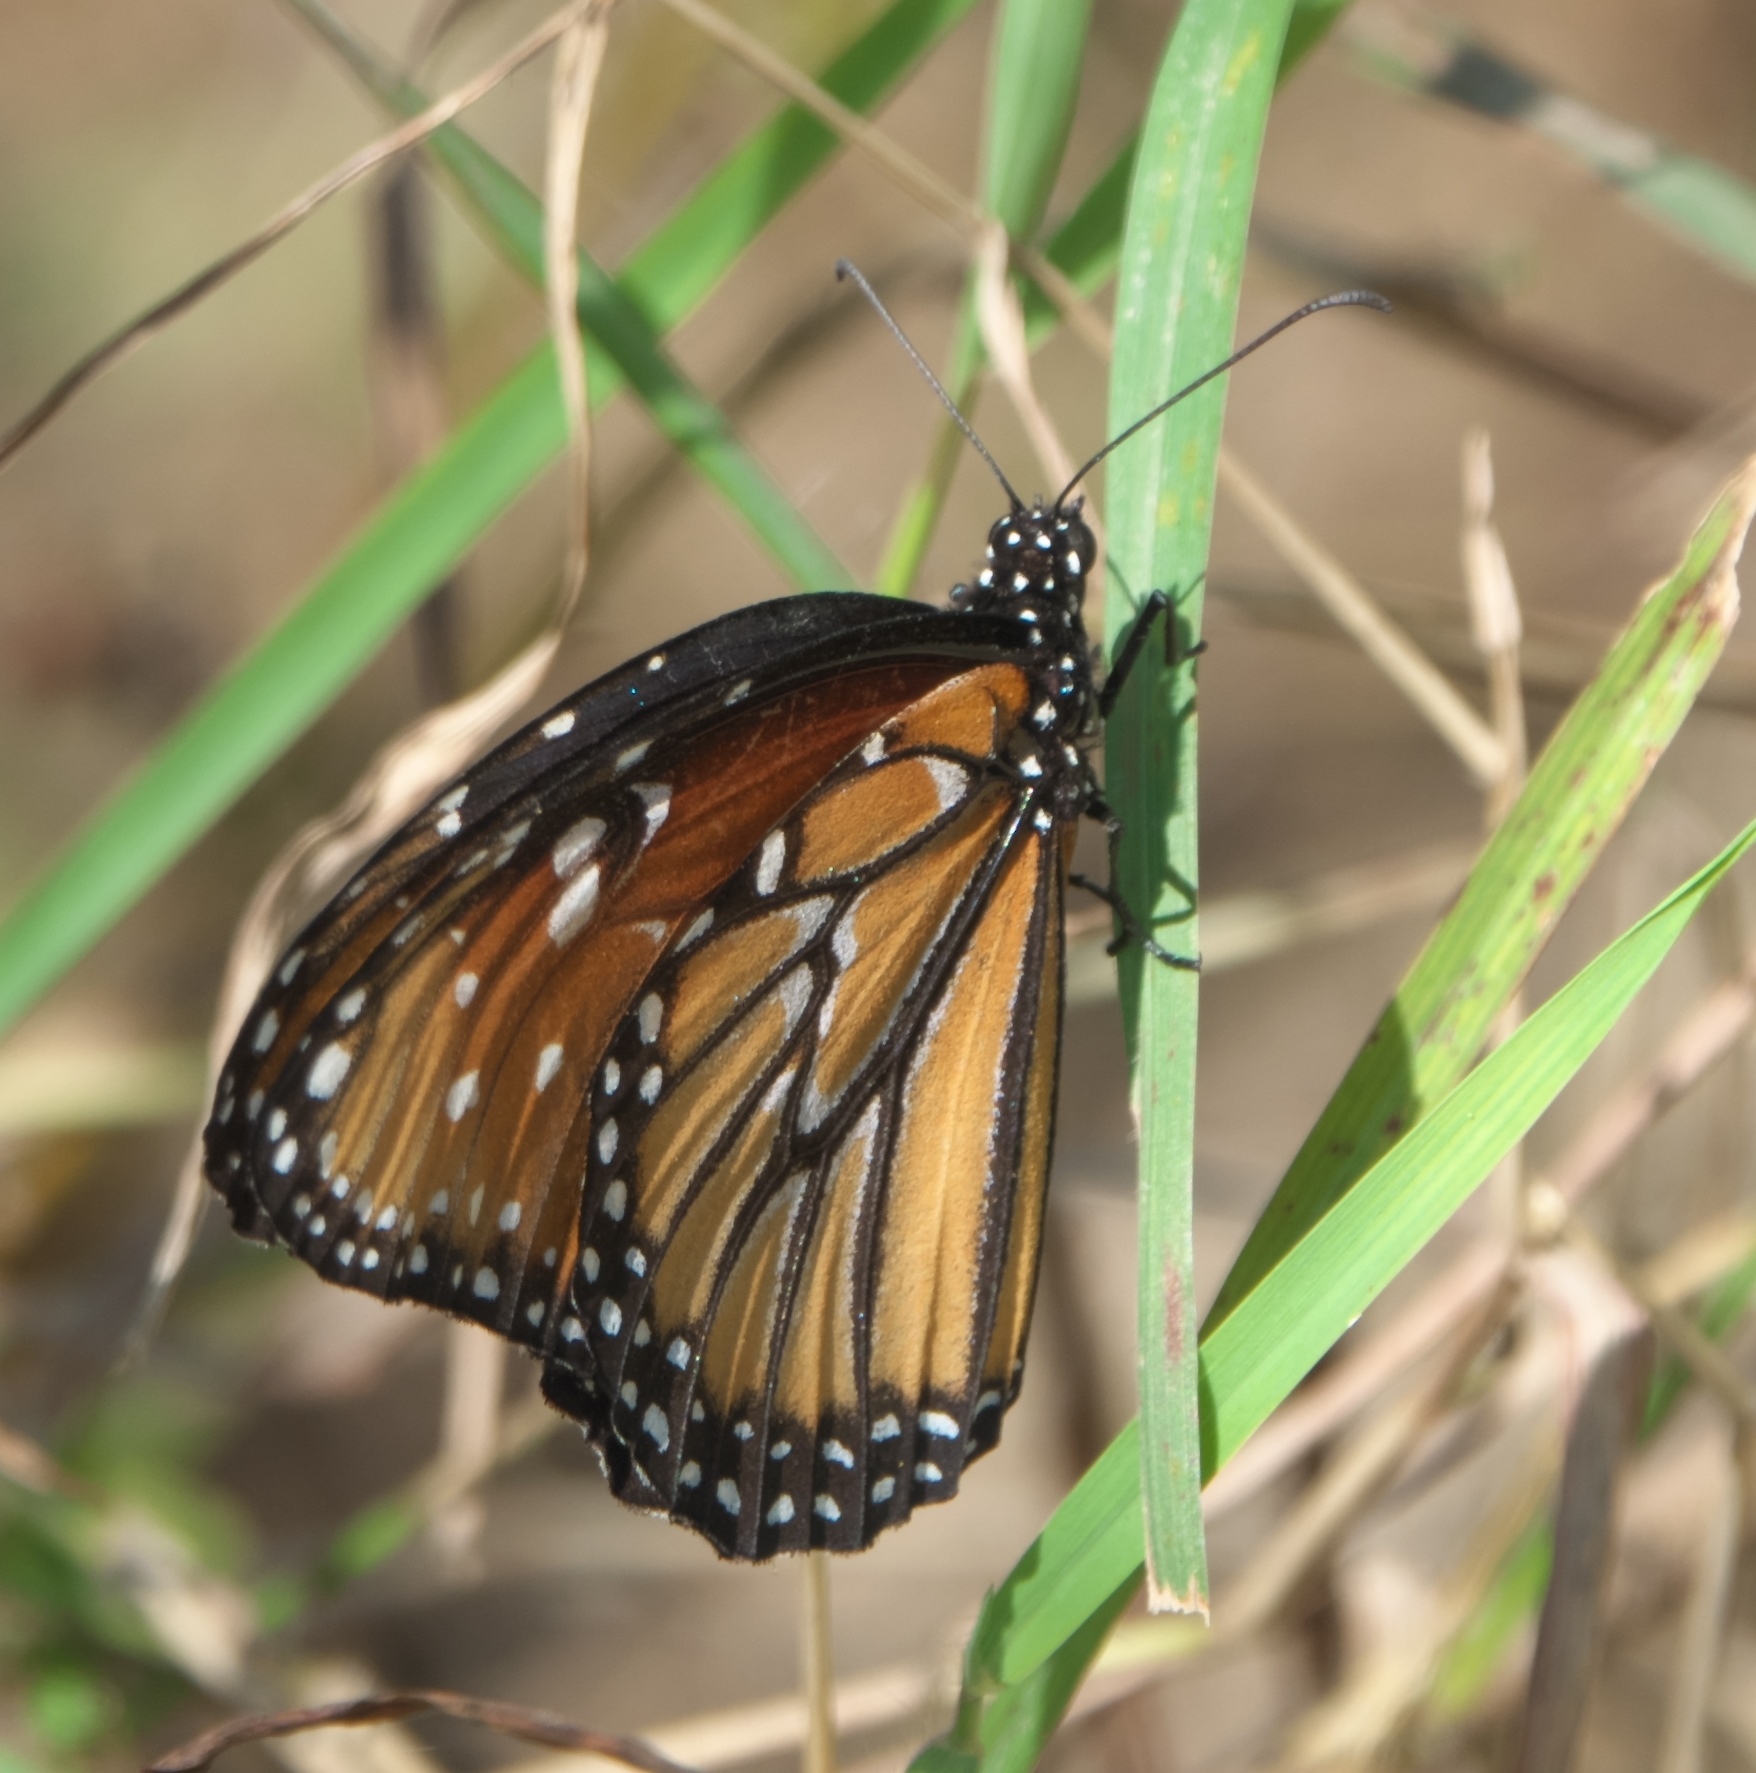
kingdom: Animalia
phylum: Arthropoda
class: Insecta
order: Lepidoptera
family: Nymphalidae
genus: Danaus
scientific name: Danaus gilippus
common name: Queen
